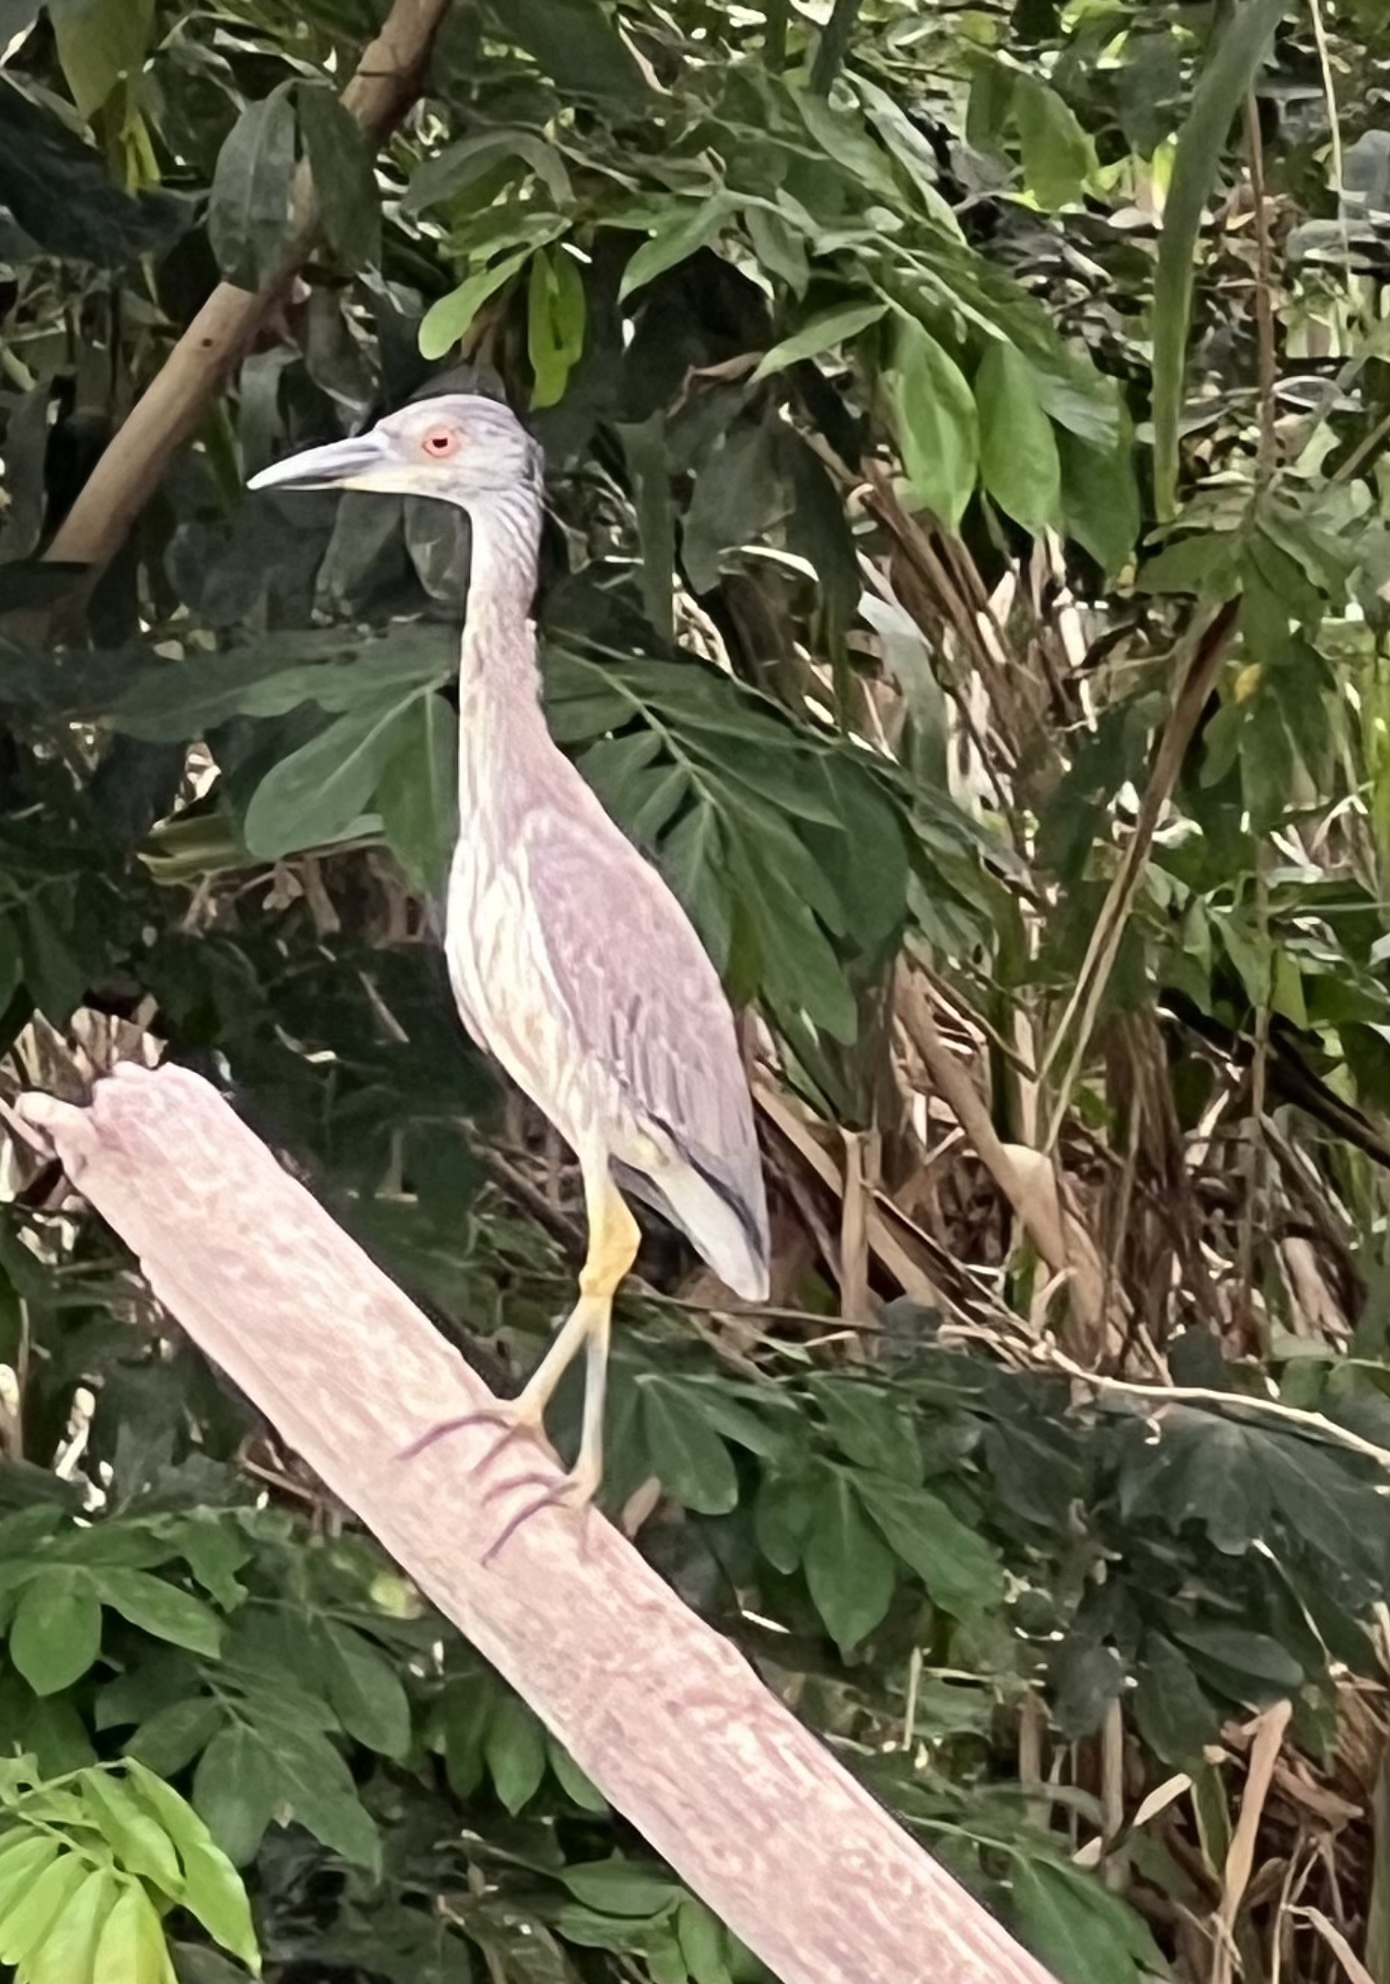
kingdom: Animalia
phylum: Chordata
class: Aves
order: Pelecaniformes
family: Ardeidae
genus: Nyctanassa
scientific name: Nyctanassa violacea
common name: Yellow-crowned night heron
